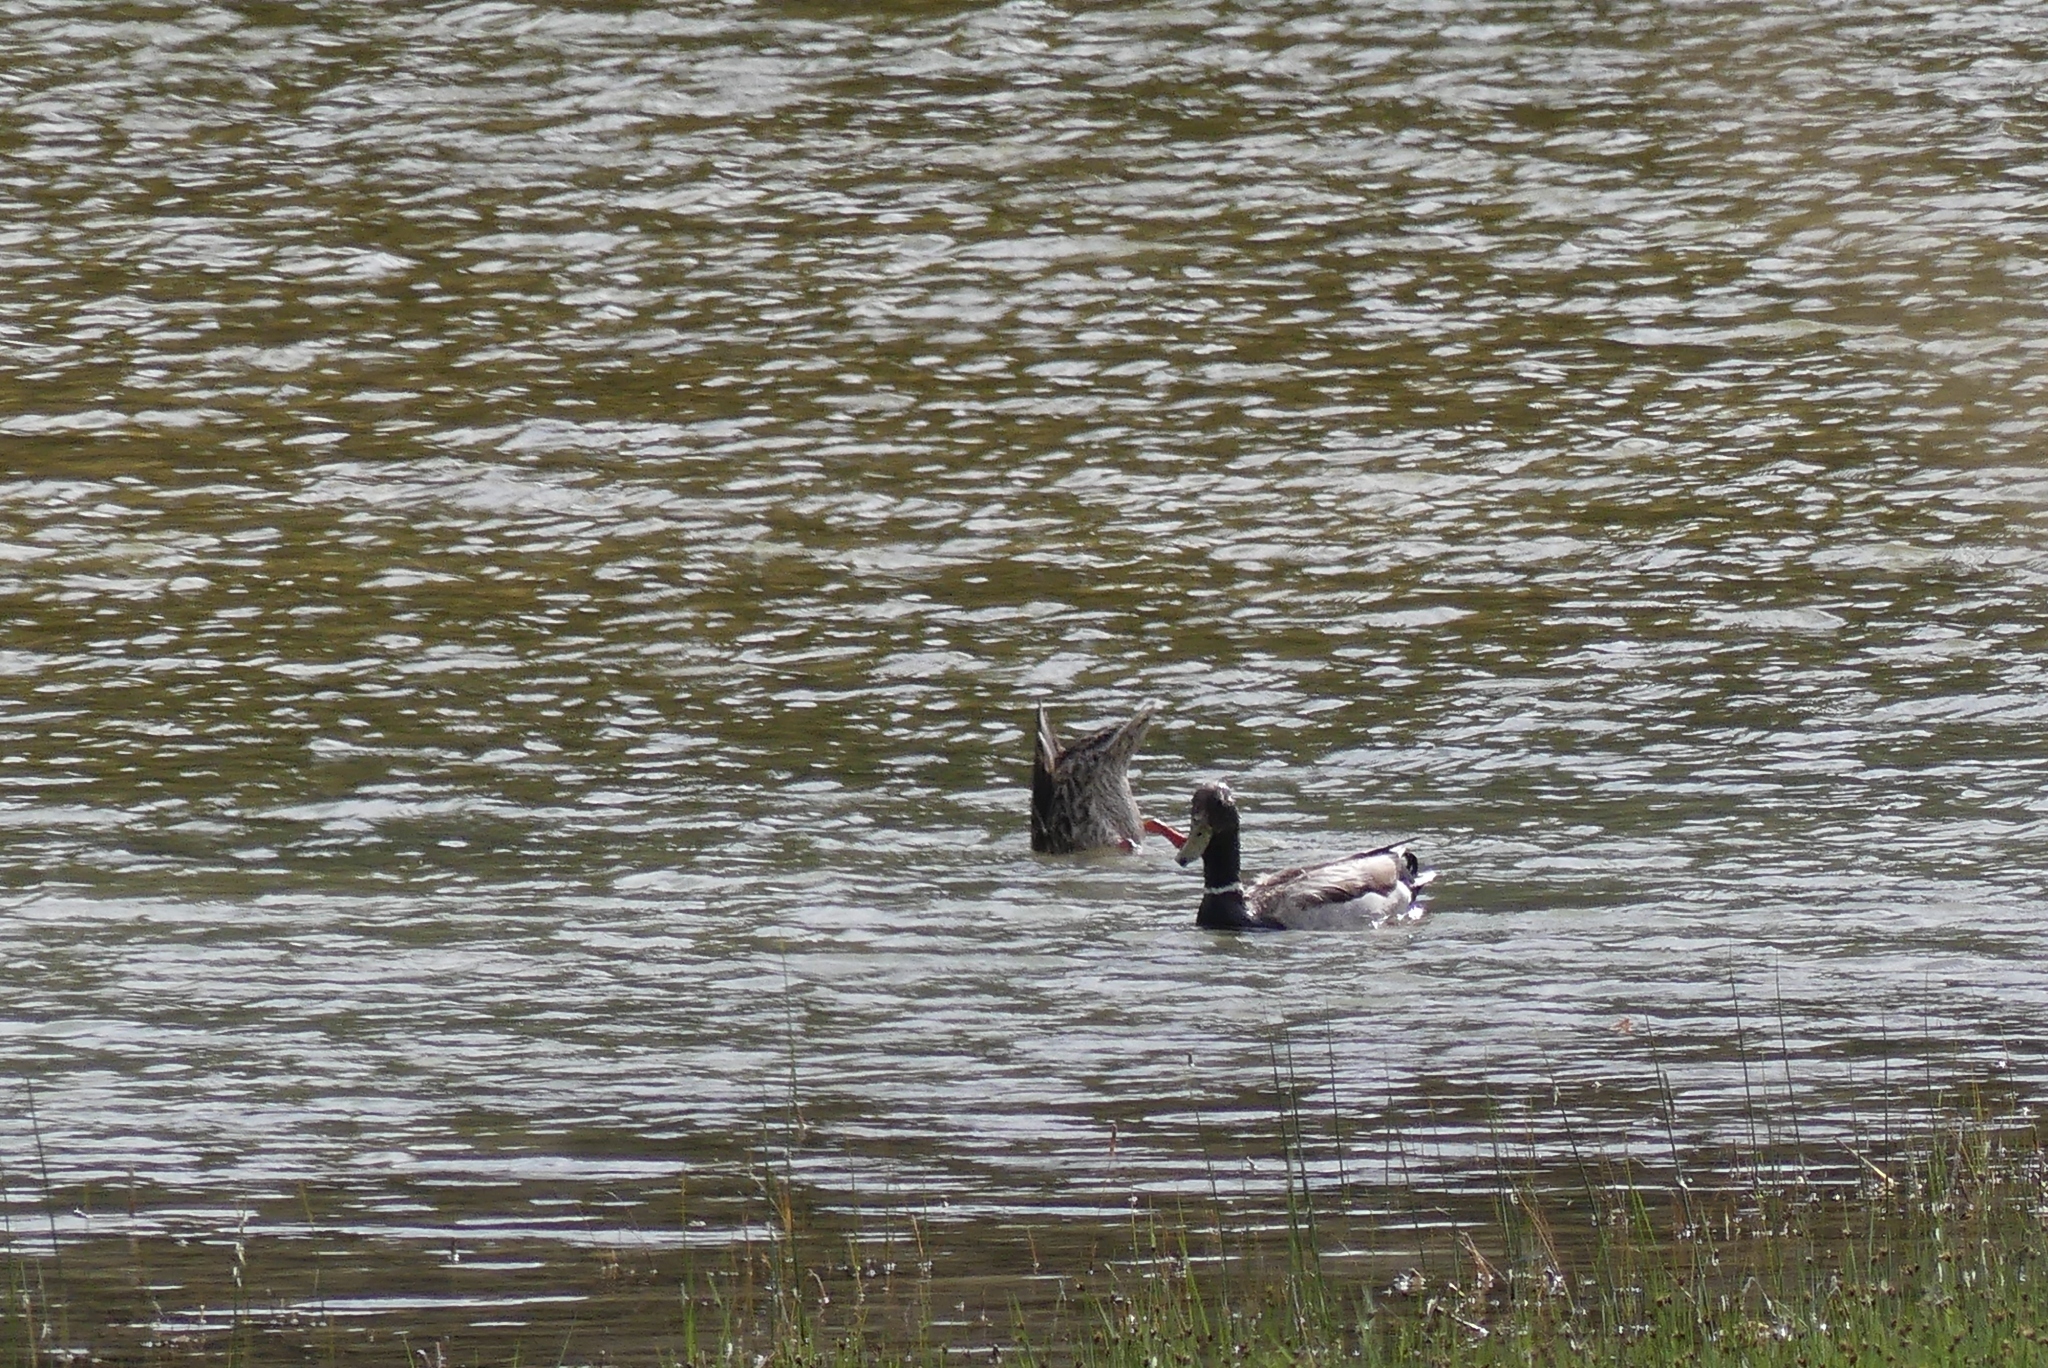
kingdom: Animalia
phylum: Chordata
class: Aves
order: Anseriformes
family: Anatidae
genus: Anas
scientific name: Anas platyrhynchos
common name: Mallard
